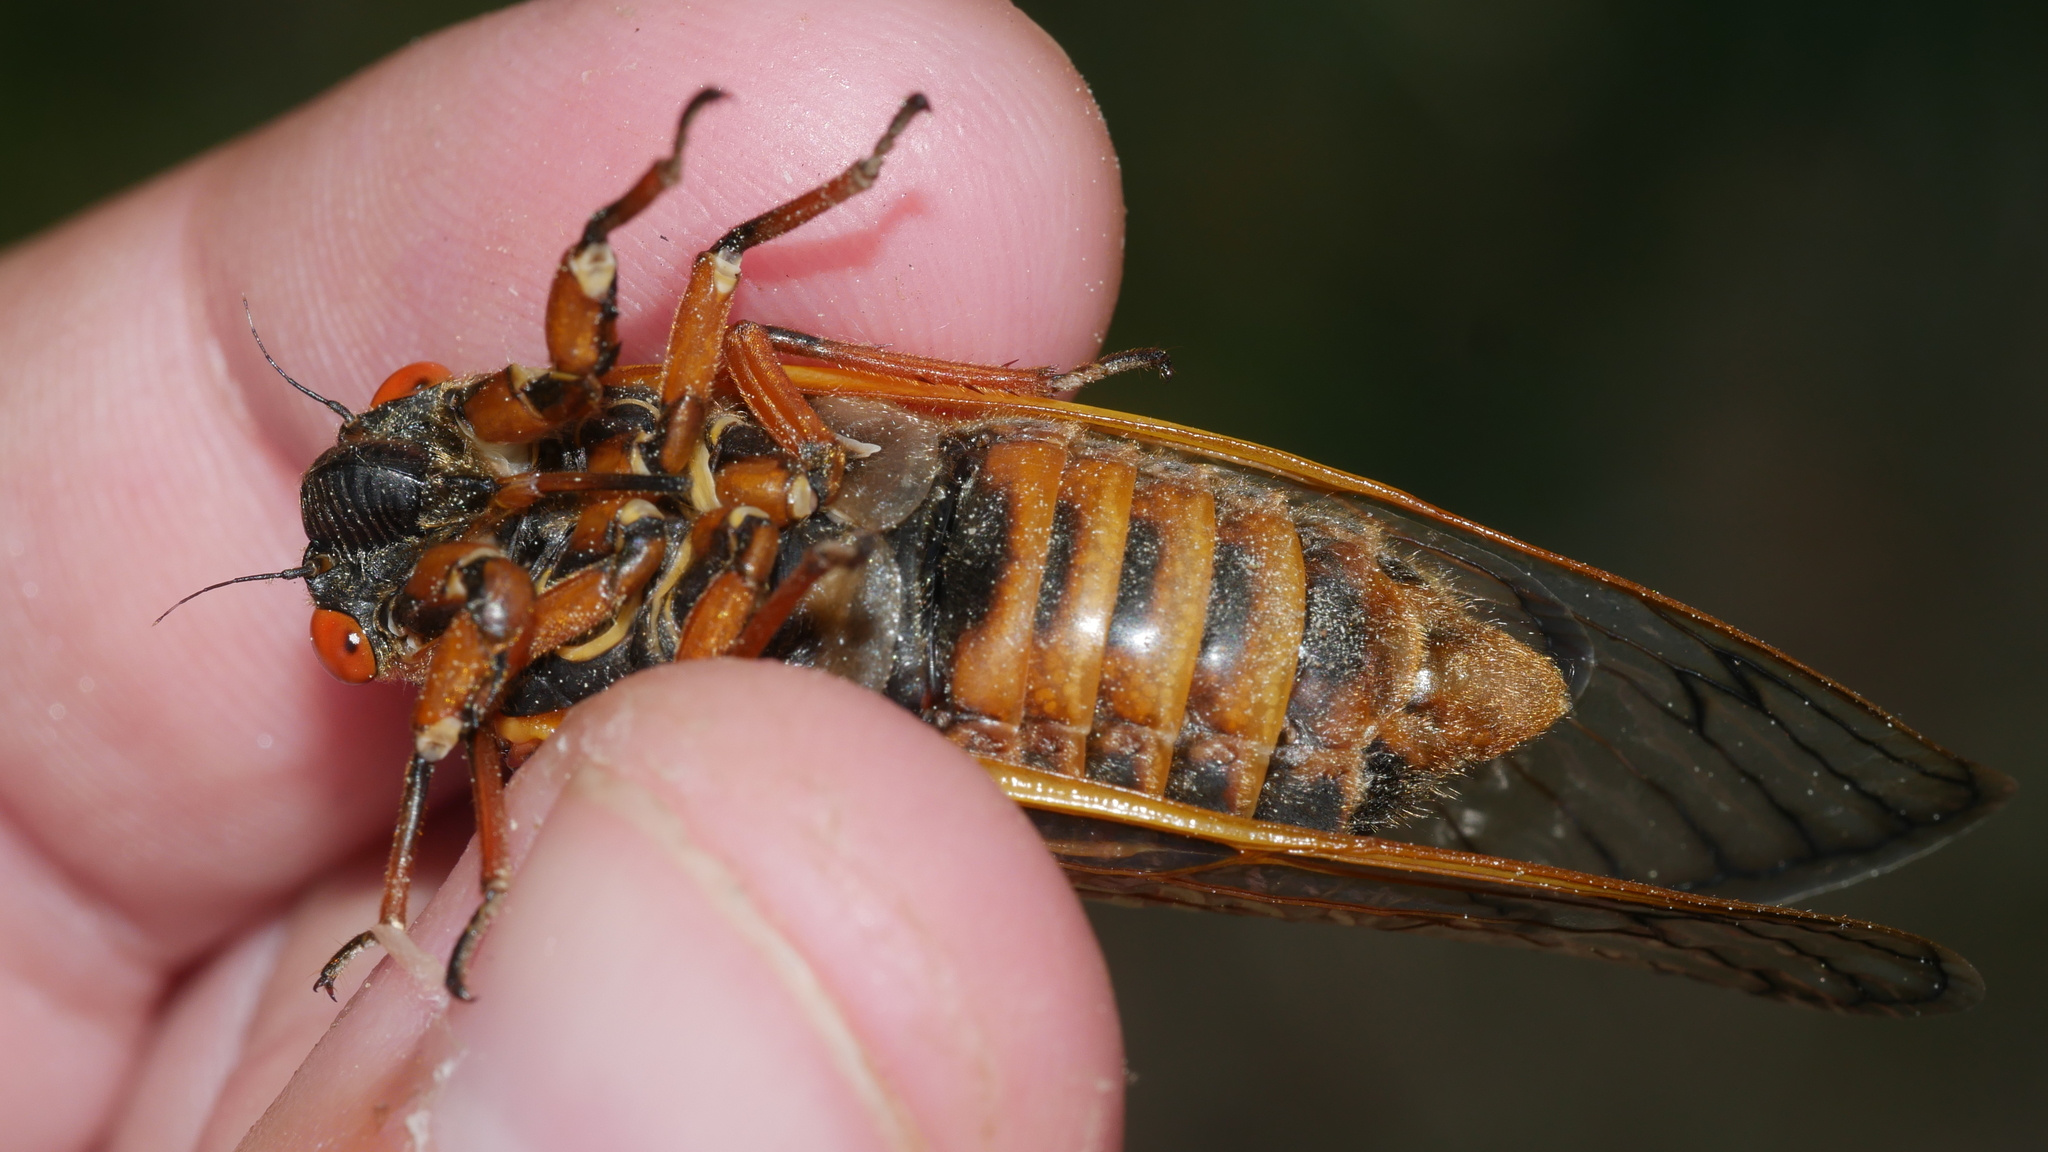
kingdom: Animalia
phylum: Arthropoda
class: Insecta
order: Hemiptera
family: Cicadidae
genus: Magicicada
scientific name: Magicicada septendecim
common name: Periodical cicada
